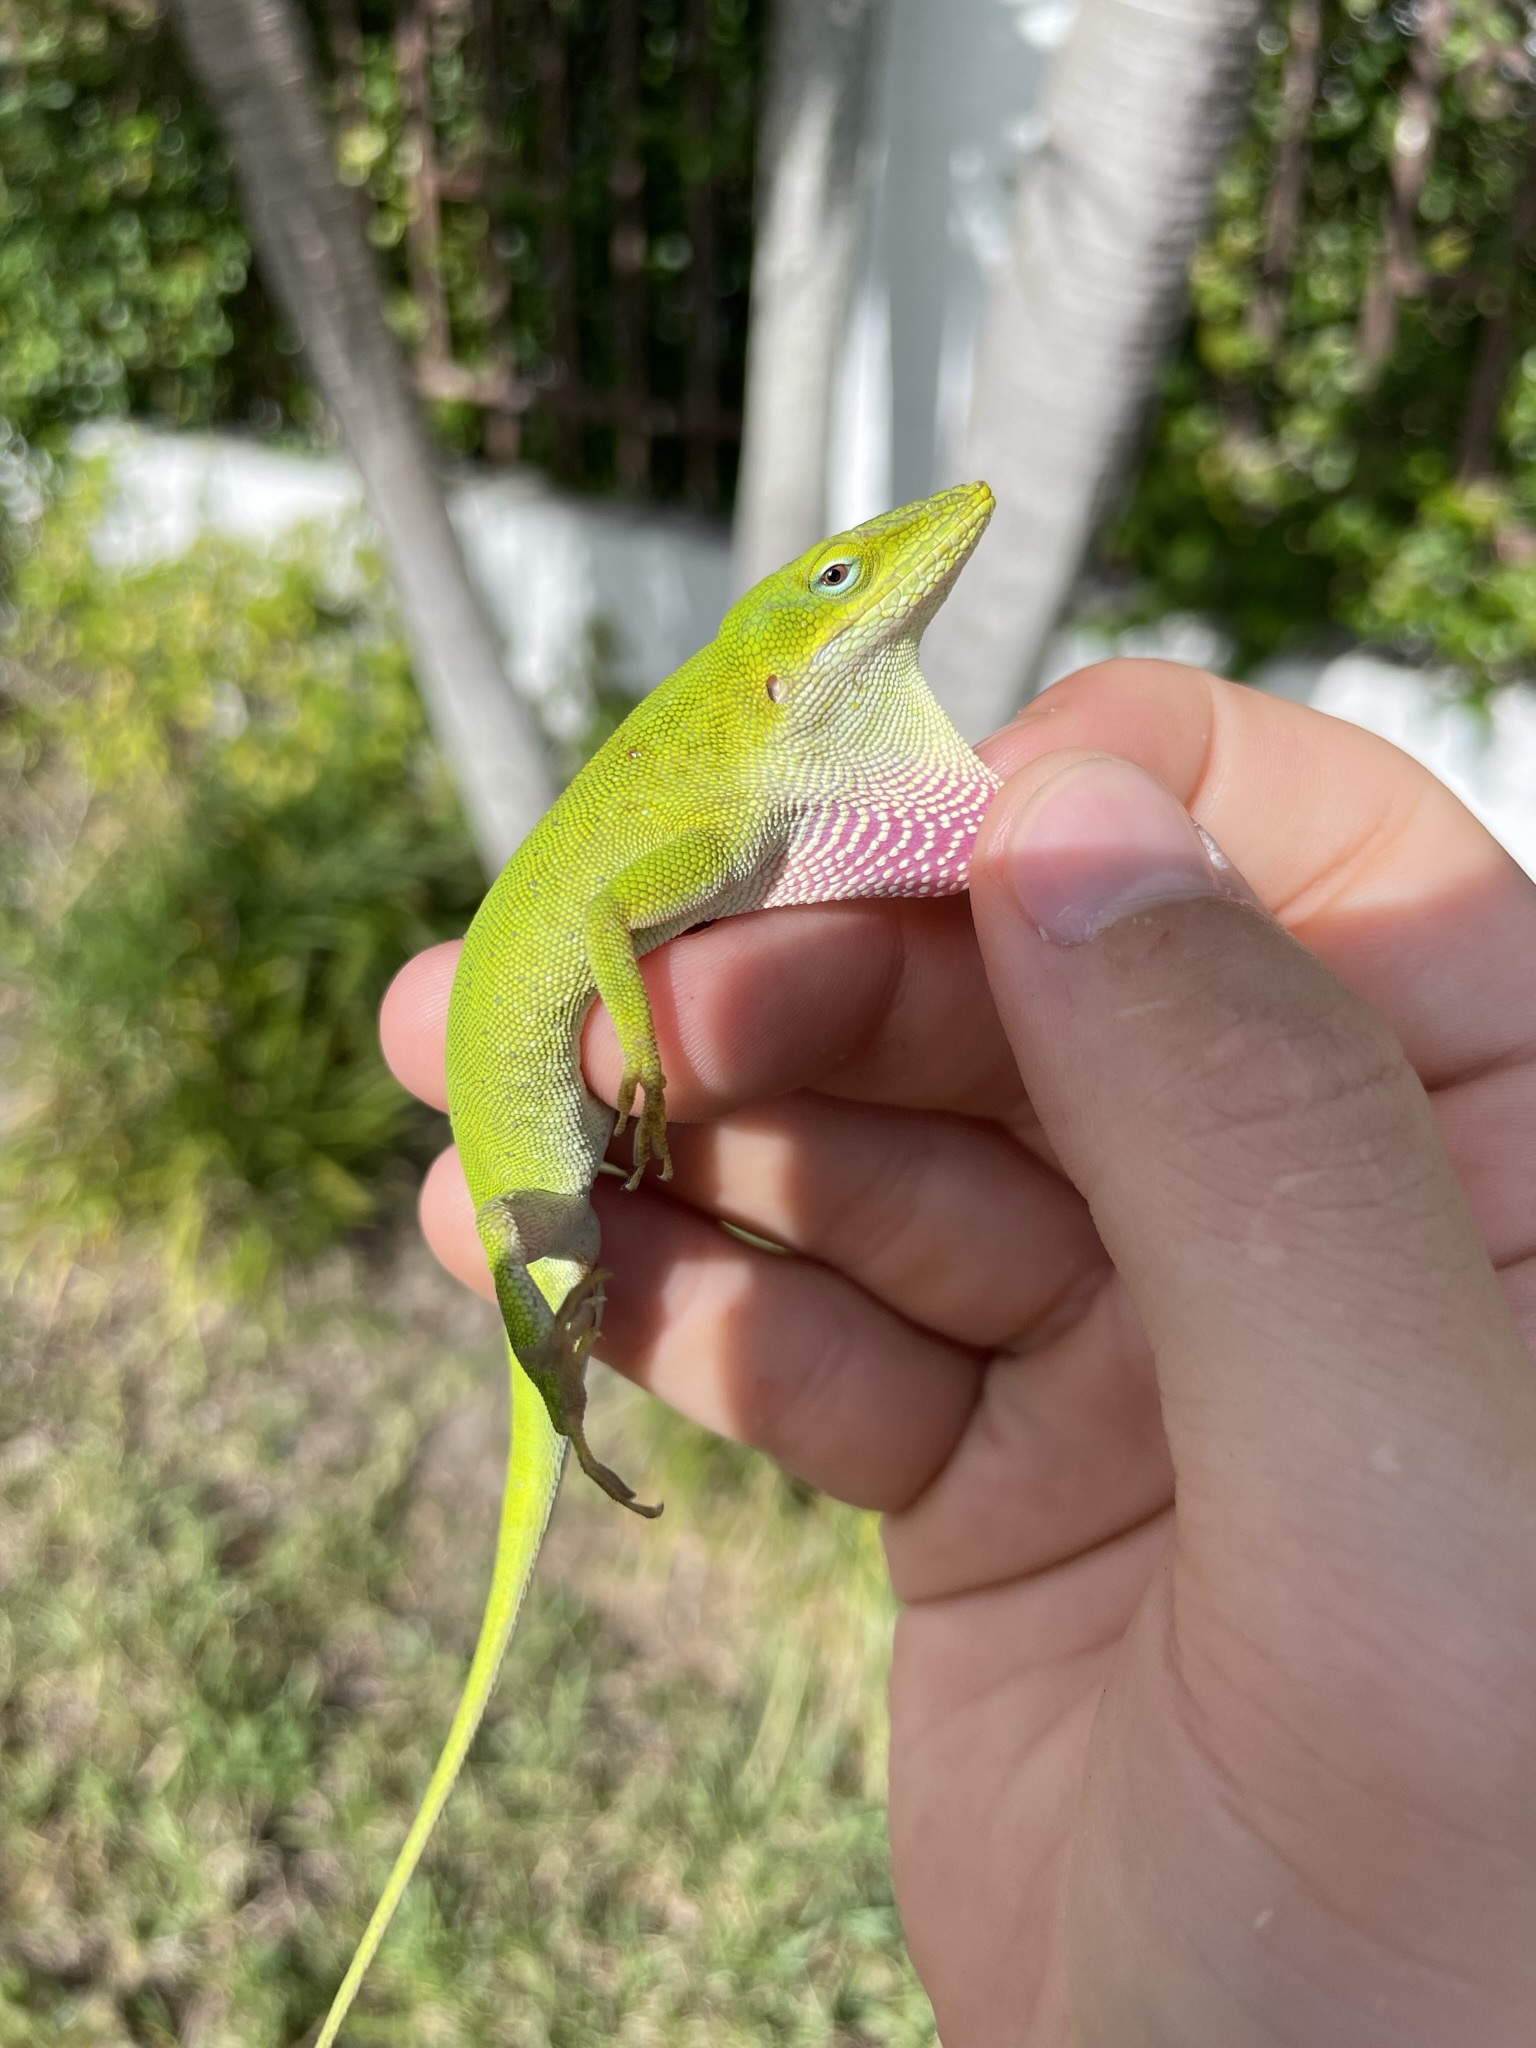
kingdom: Animalia
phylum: Chordata
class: Squamata
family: Dactyloidae
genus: Anolis
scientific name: Anolis carolinensis
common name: Green anole
